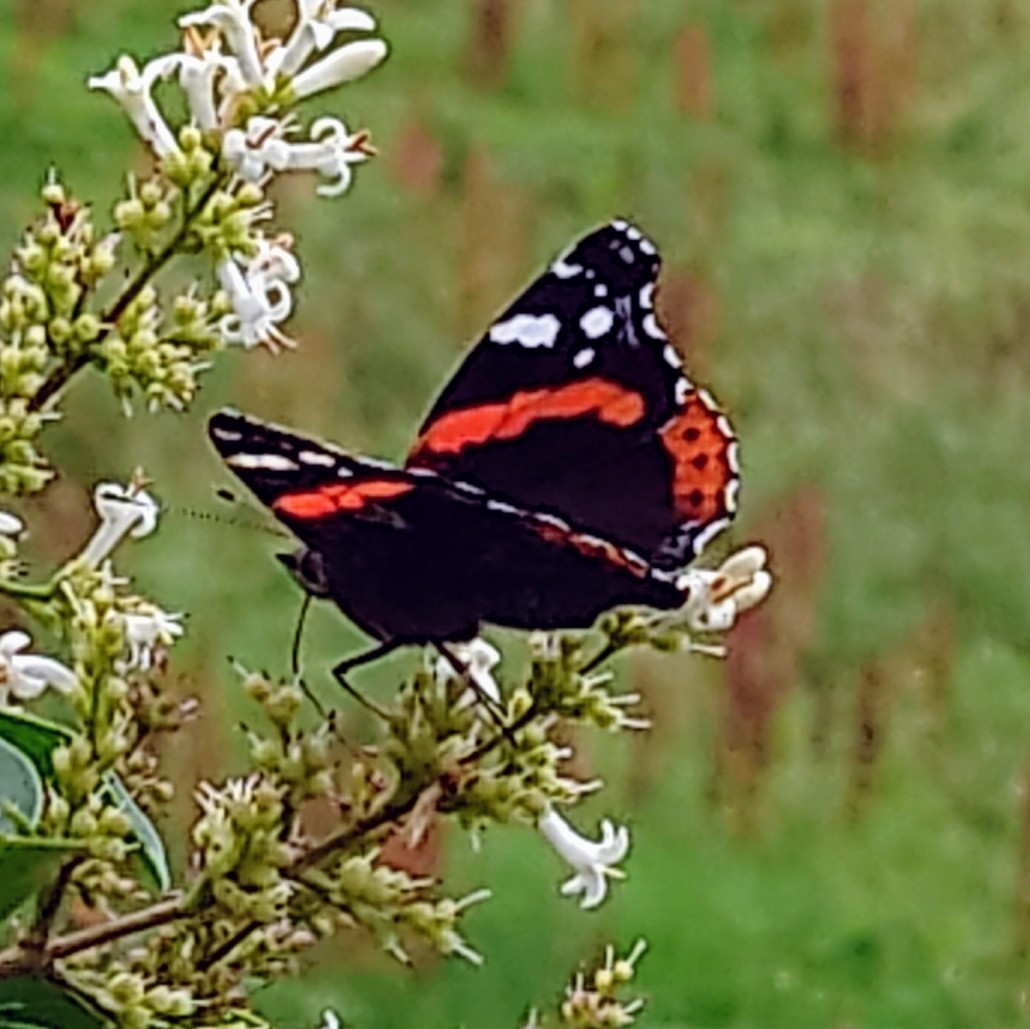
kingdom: Animalia
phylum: Arthropoda
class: Insecta
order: Lepidoptera
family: Nymphalidae
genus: Vanessa
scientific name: Vanessa atalanta
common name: Red admiral
